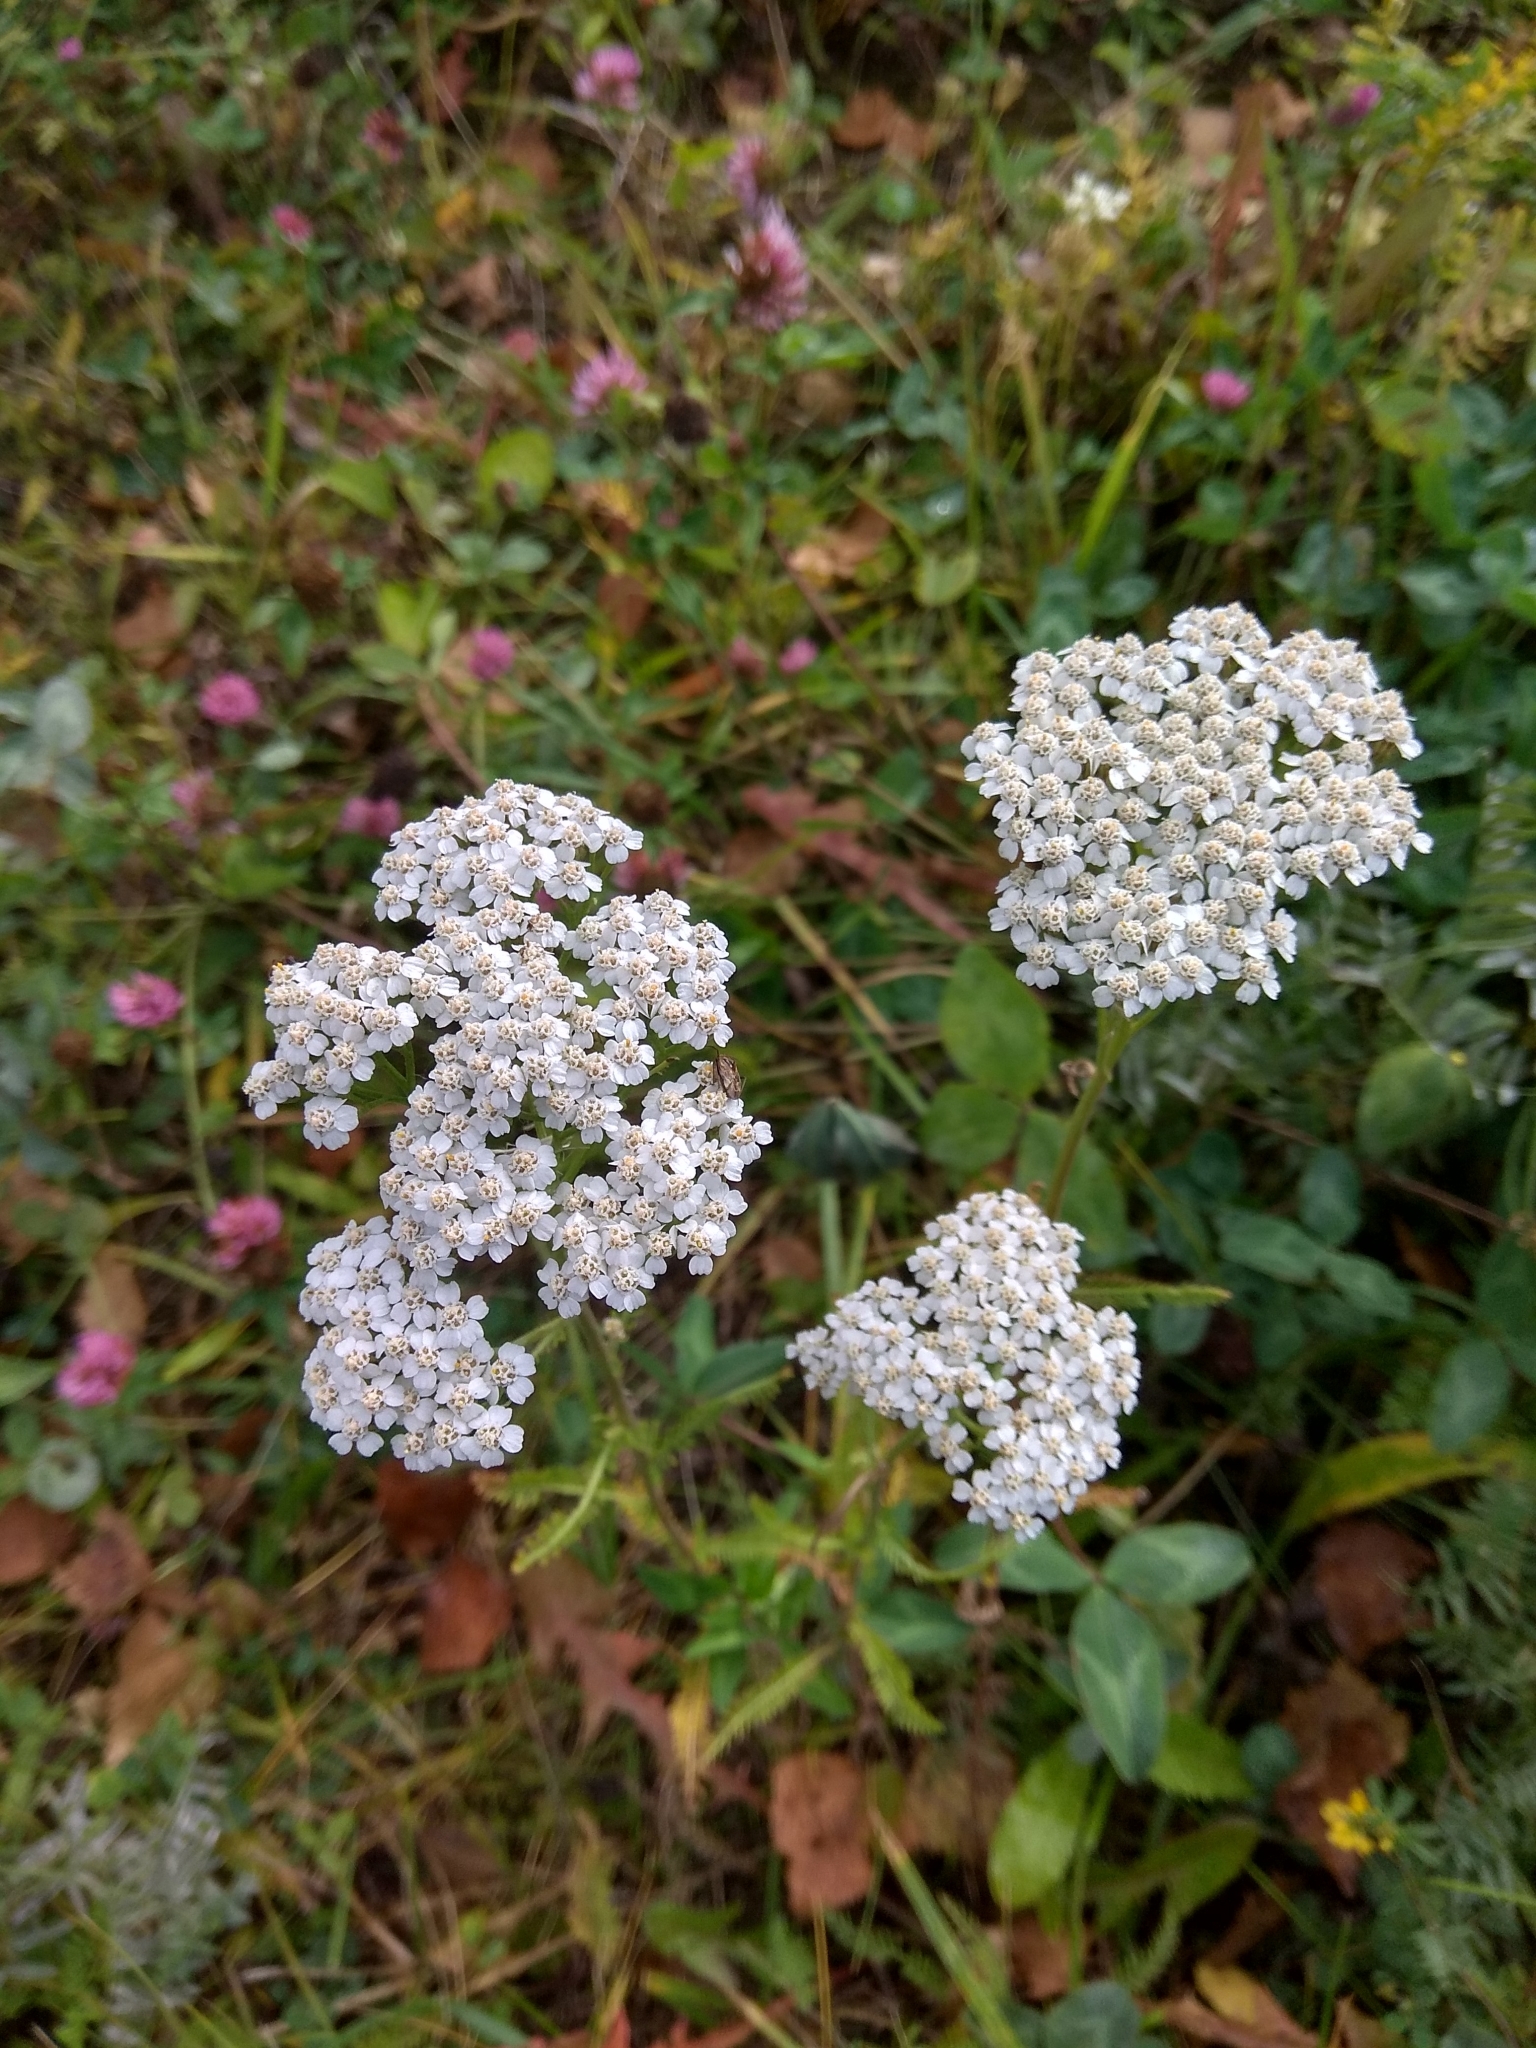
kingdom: Plantae
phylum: Tracheophyta
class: Magnoliopsida
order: Asterales
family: Asteraceae
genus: Achillea
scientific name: Achillea millefolium
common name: Yarrow
